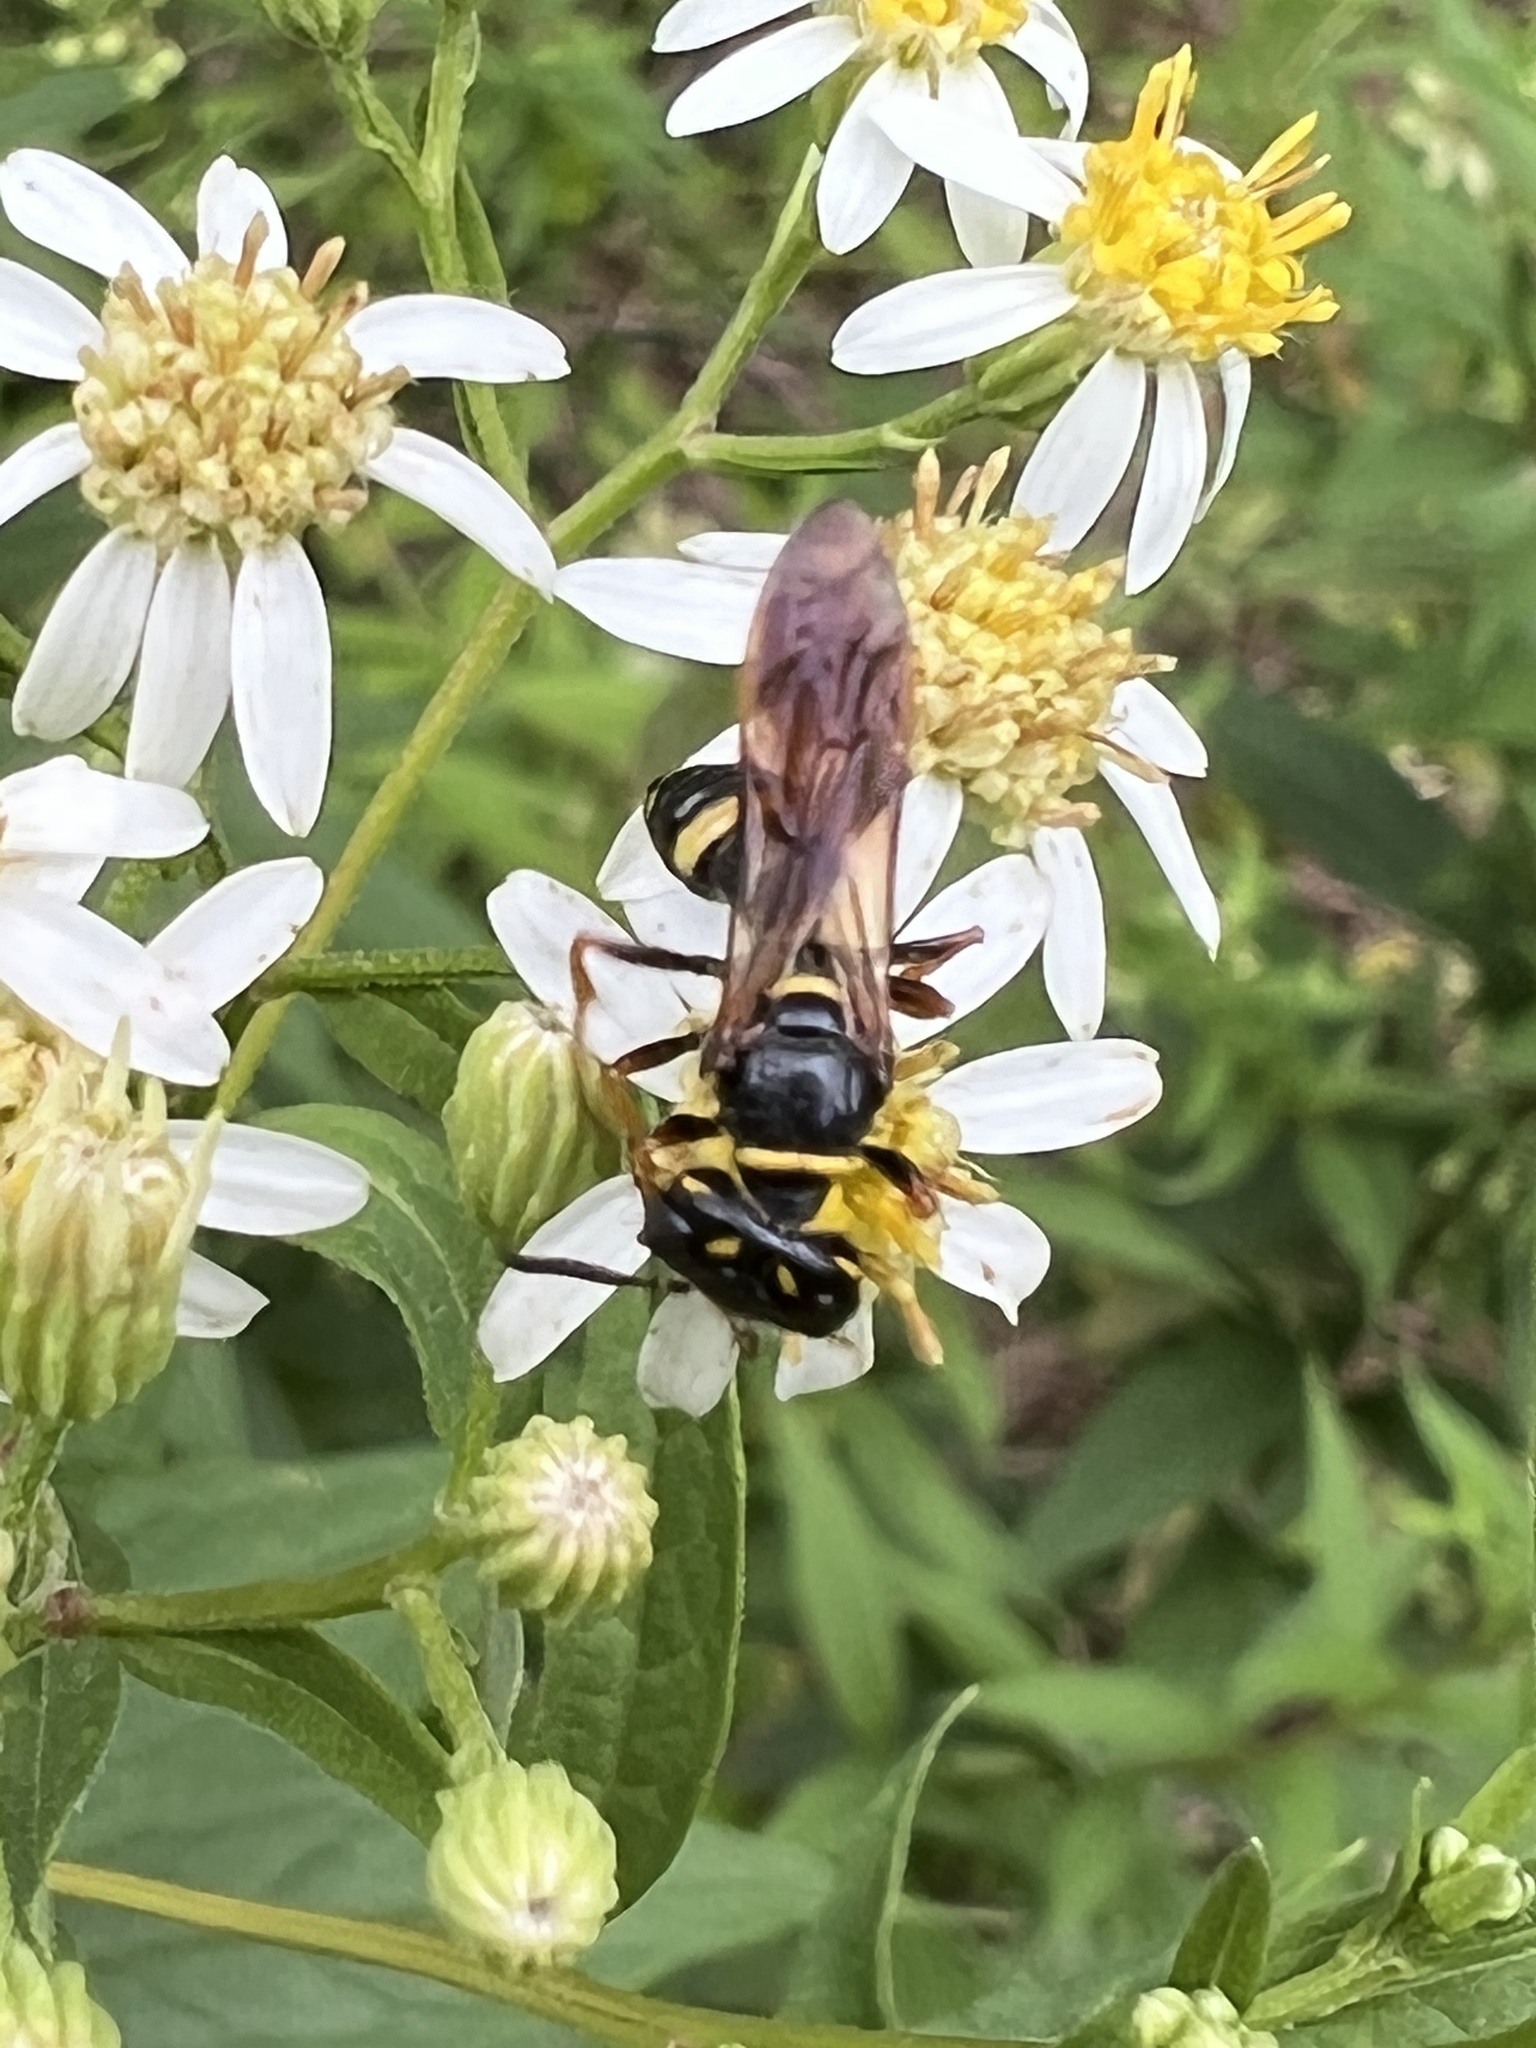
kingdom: Animalia
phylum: Arthropoda
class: Insecta
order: Hymenoptera
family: Crabronidae
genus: Philanthus
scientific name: Philanthus gibbosus
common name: Humped beewolf
